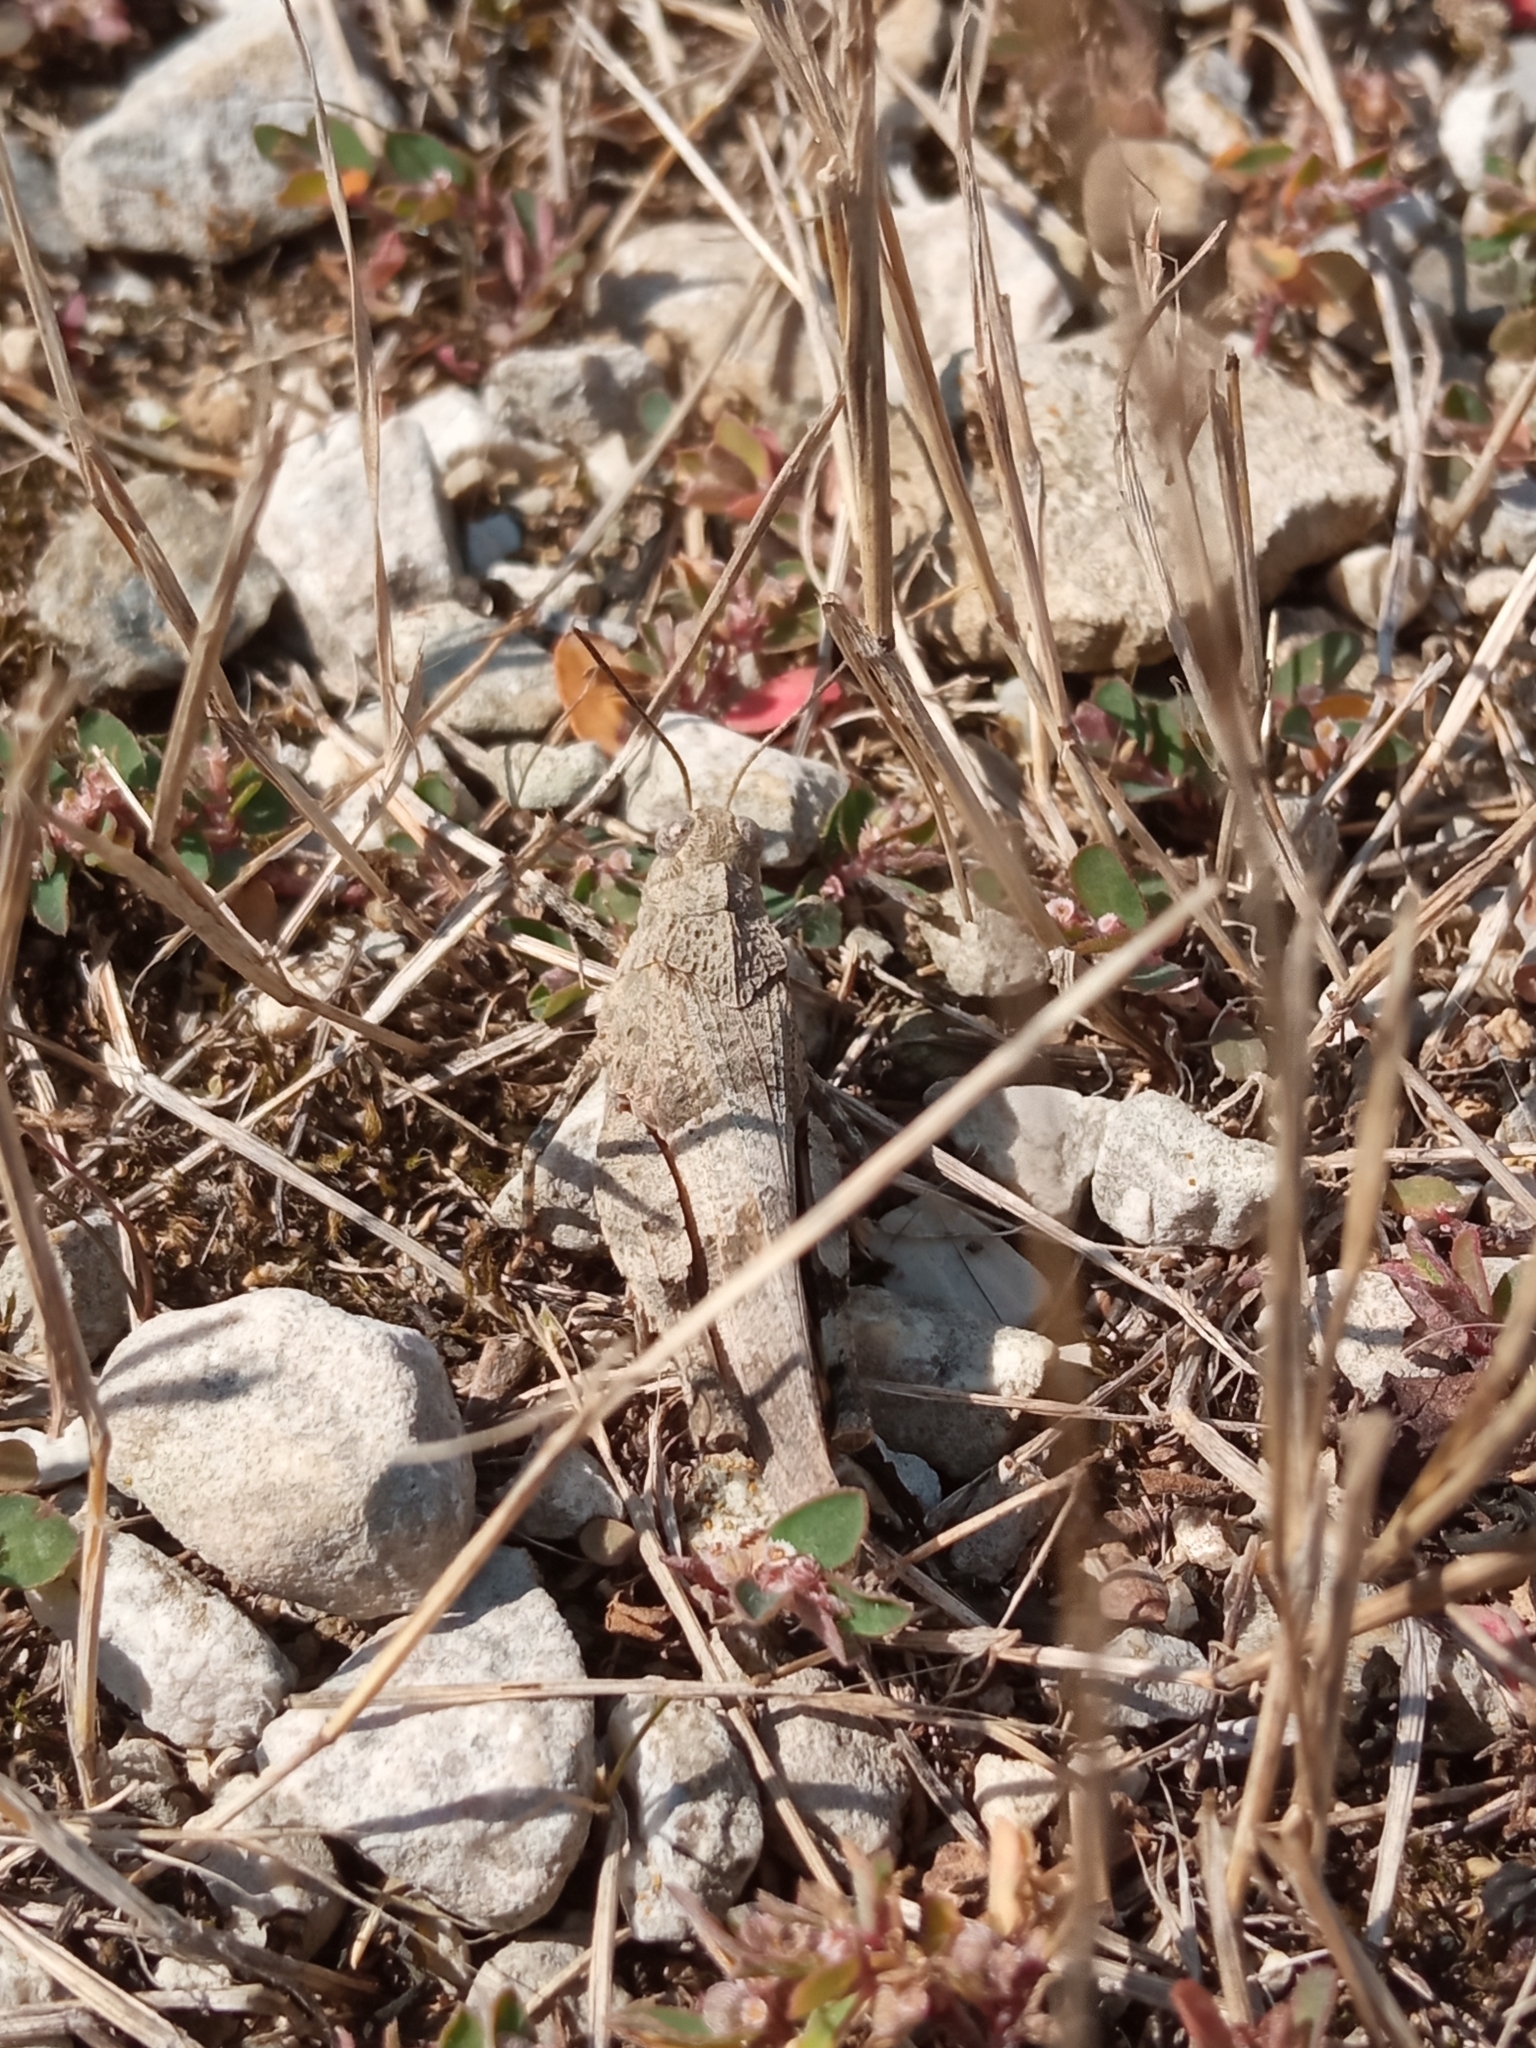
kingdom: Animalia
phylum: Arthropoda
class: Insecta
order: Orthoptera
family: Acrididae
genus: Oedipoda
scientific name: Oedipoda caerulescens
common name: Blue-winged grasshopper
